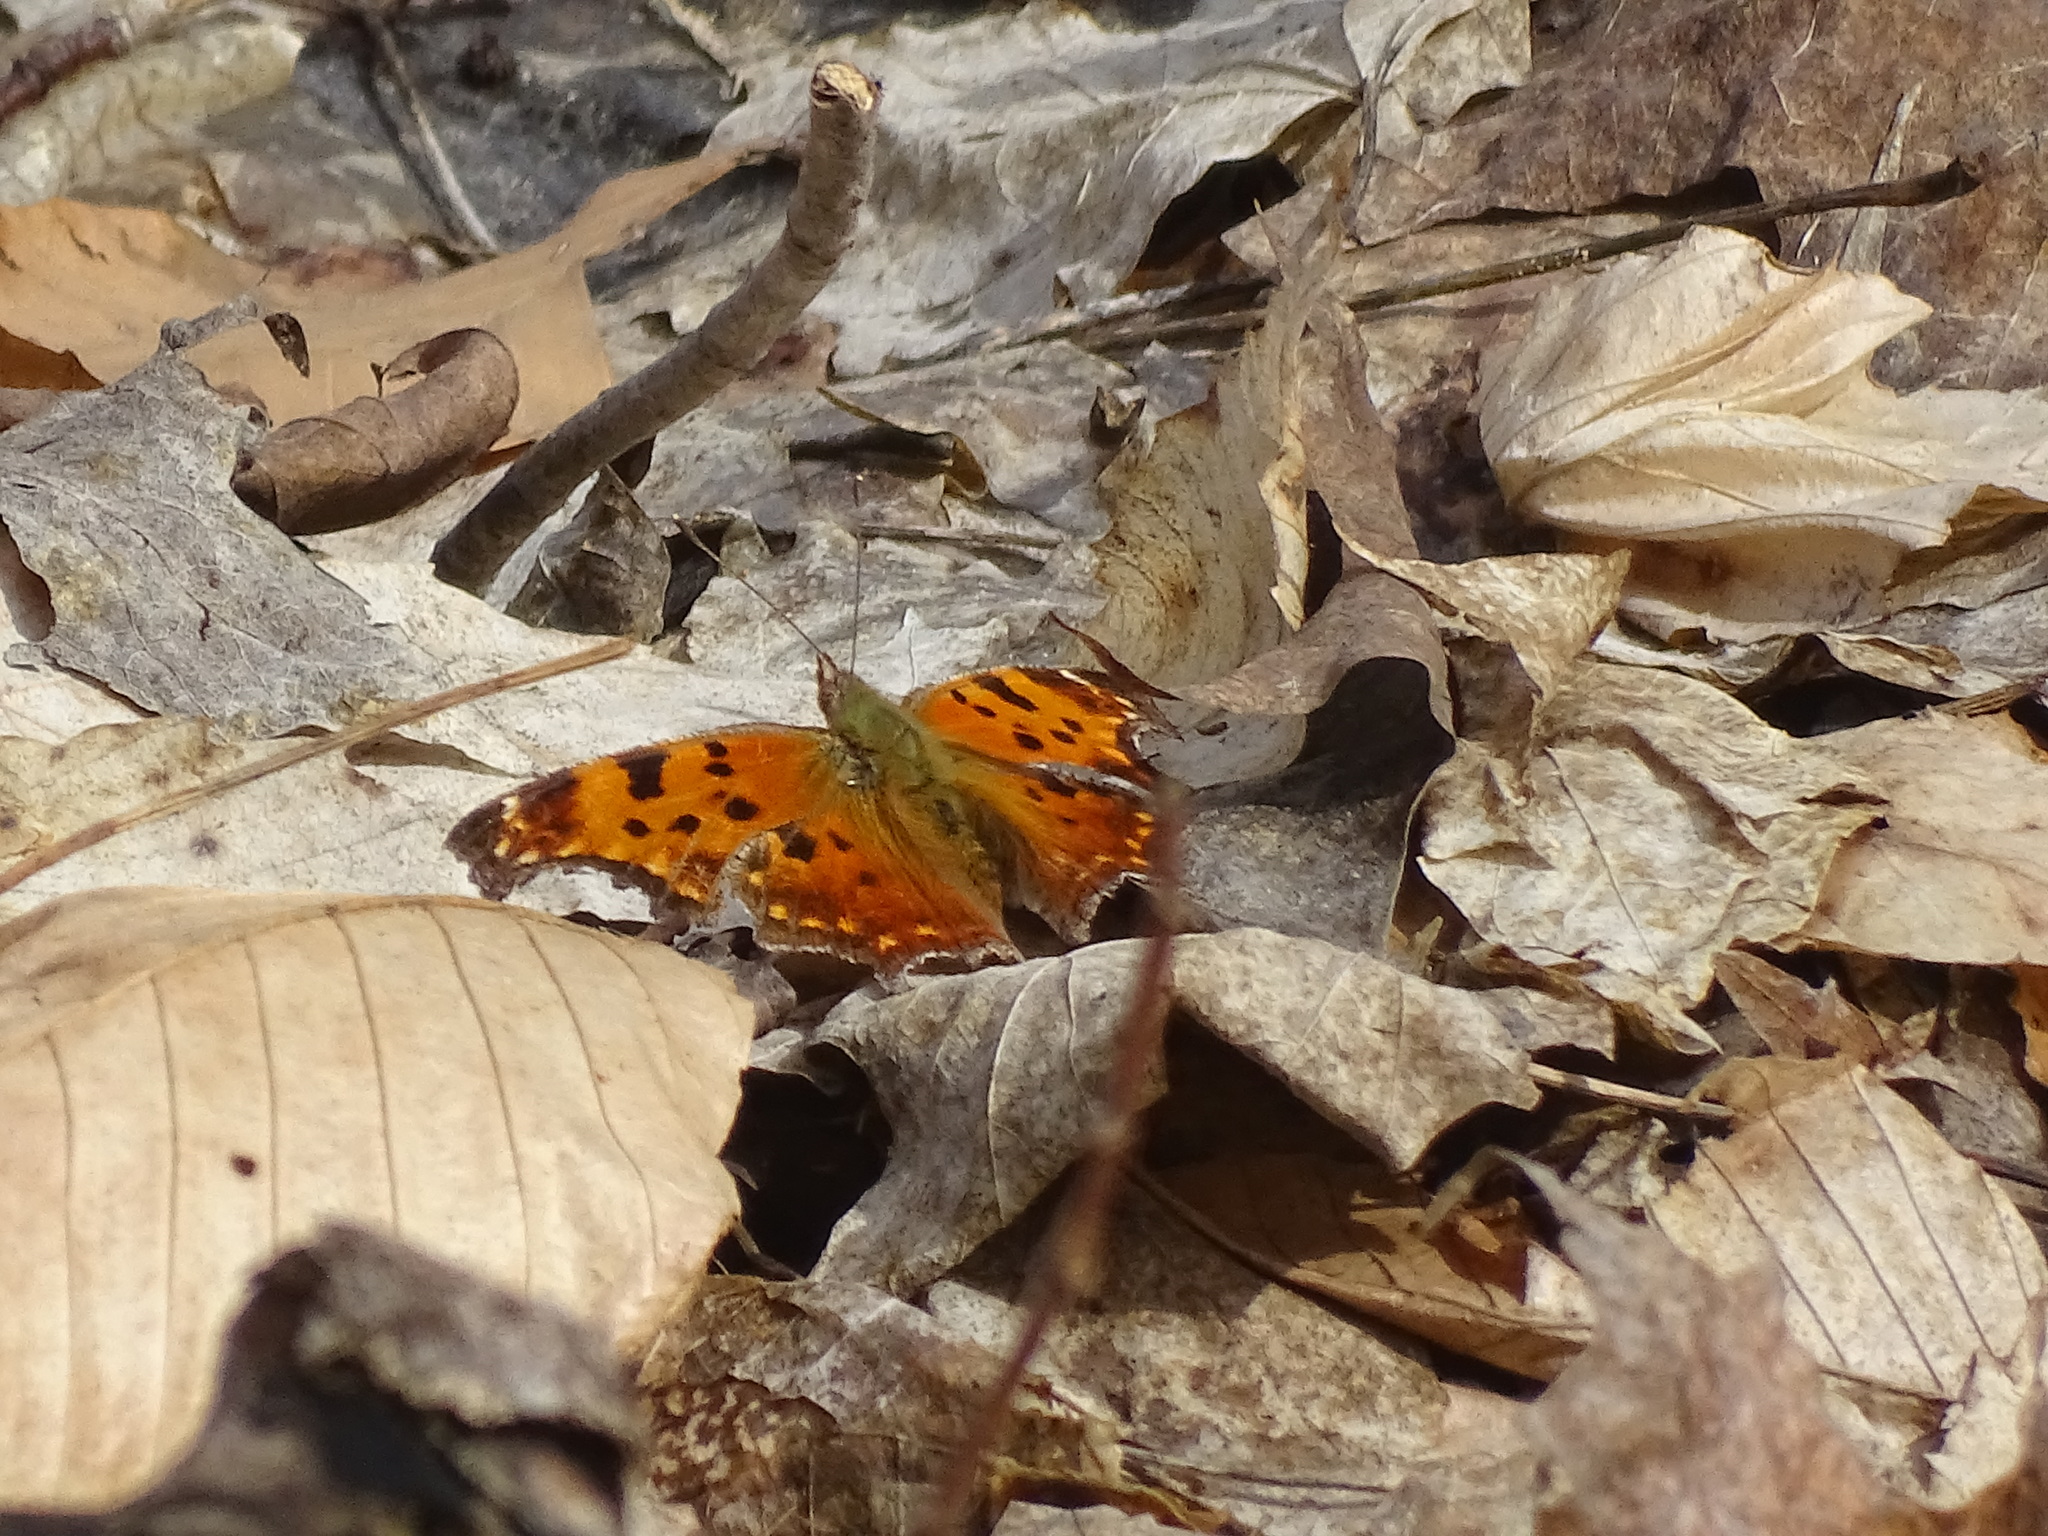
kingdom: Animalia
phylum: Arthropoda
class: Insecta
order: Lepidoptera
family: Nymphalidae
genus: Polygonia
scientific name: Polygonia comma
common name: Eastern comma
